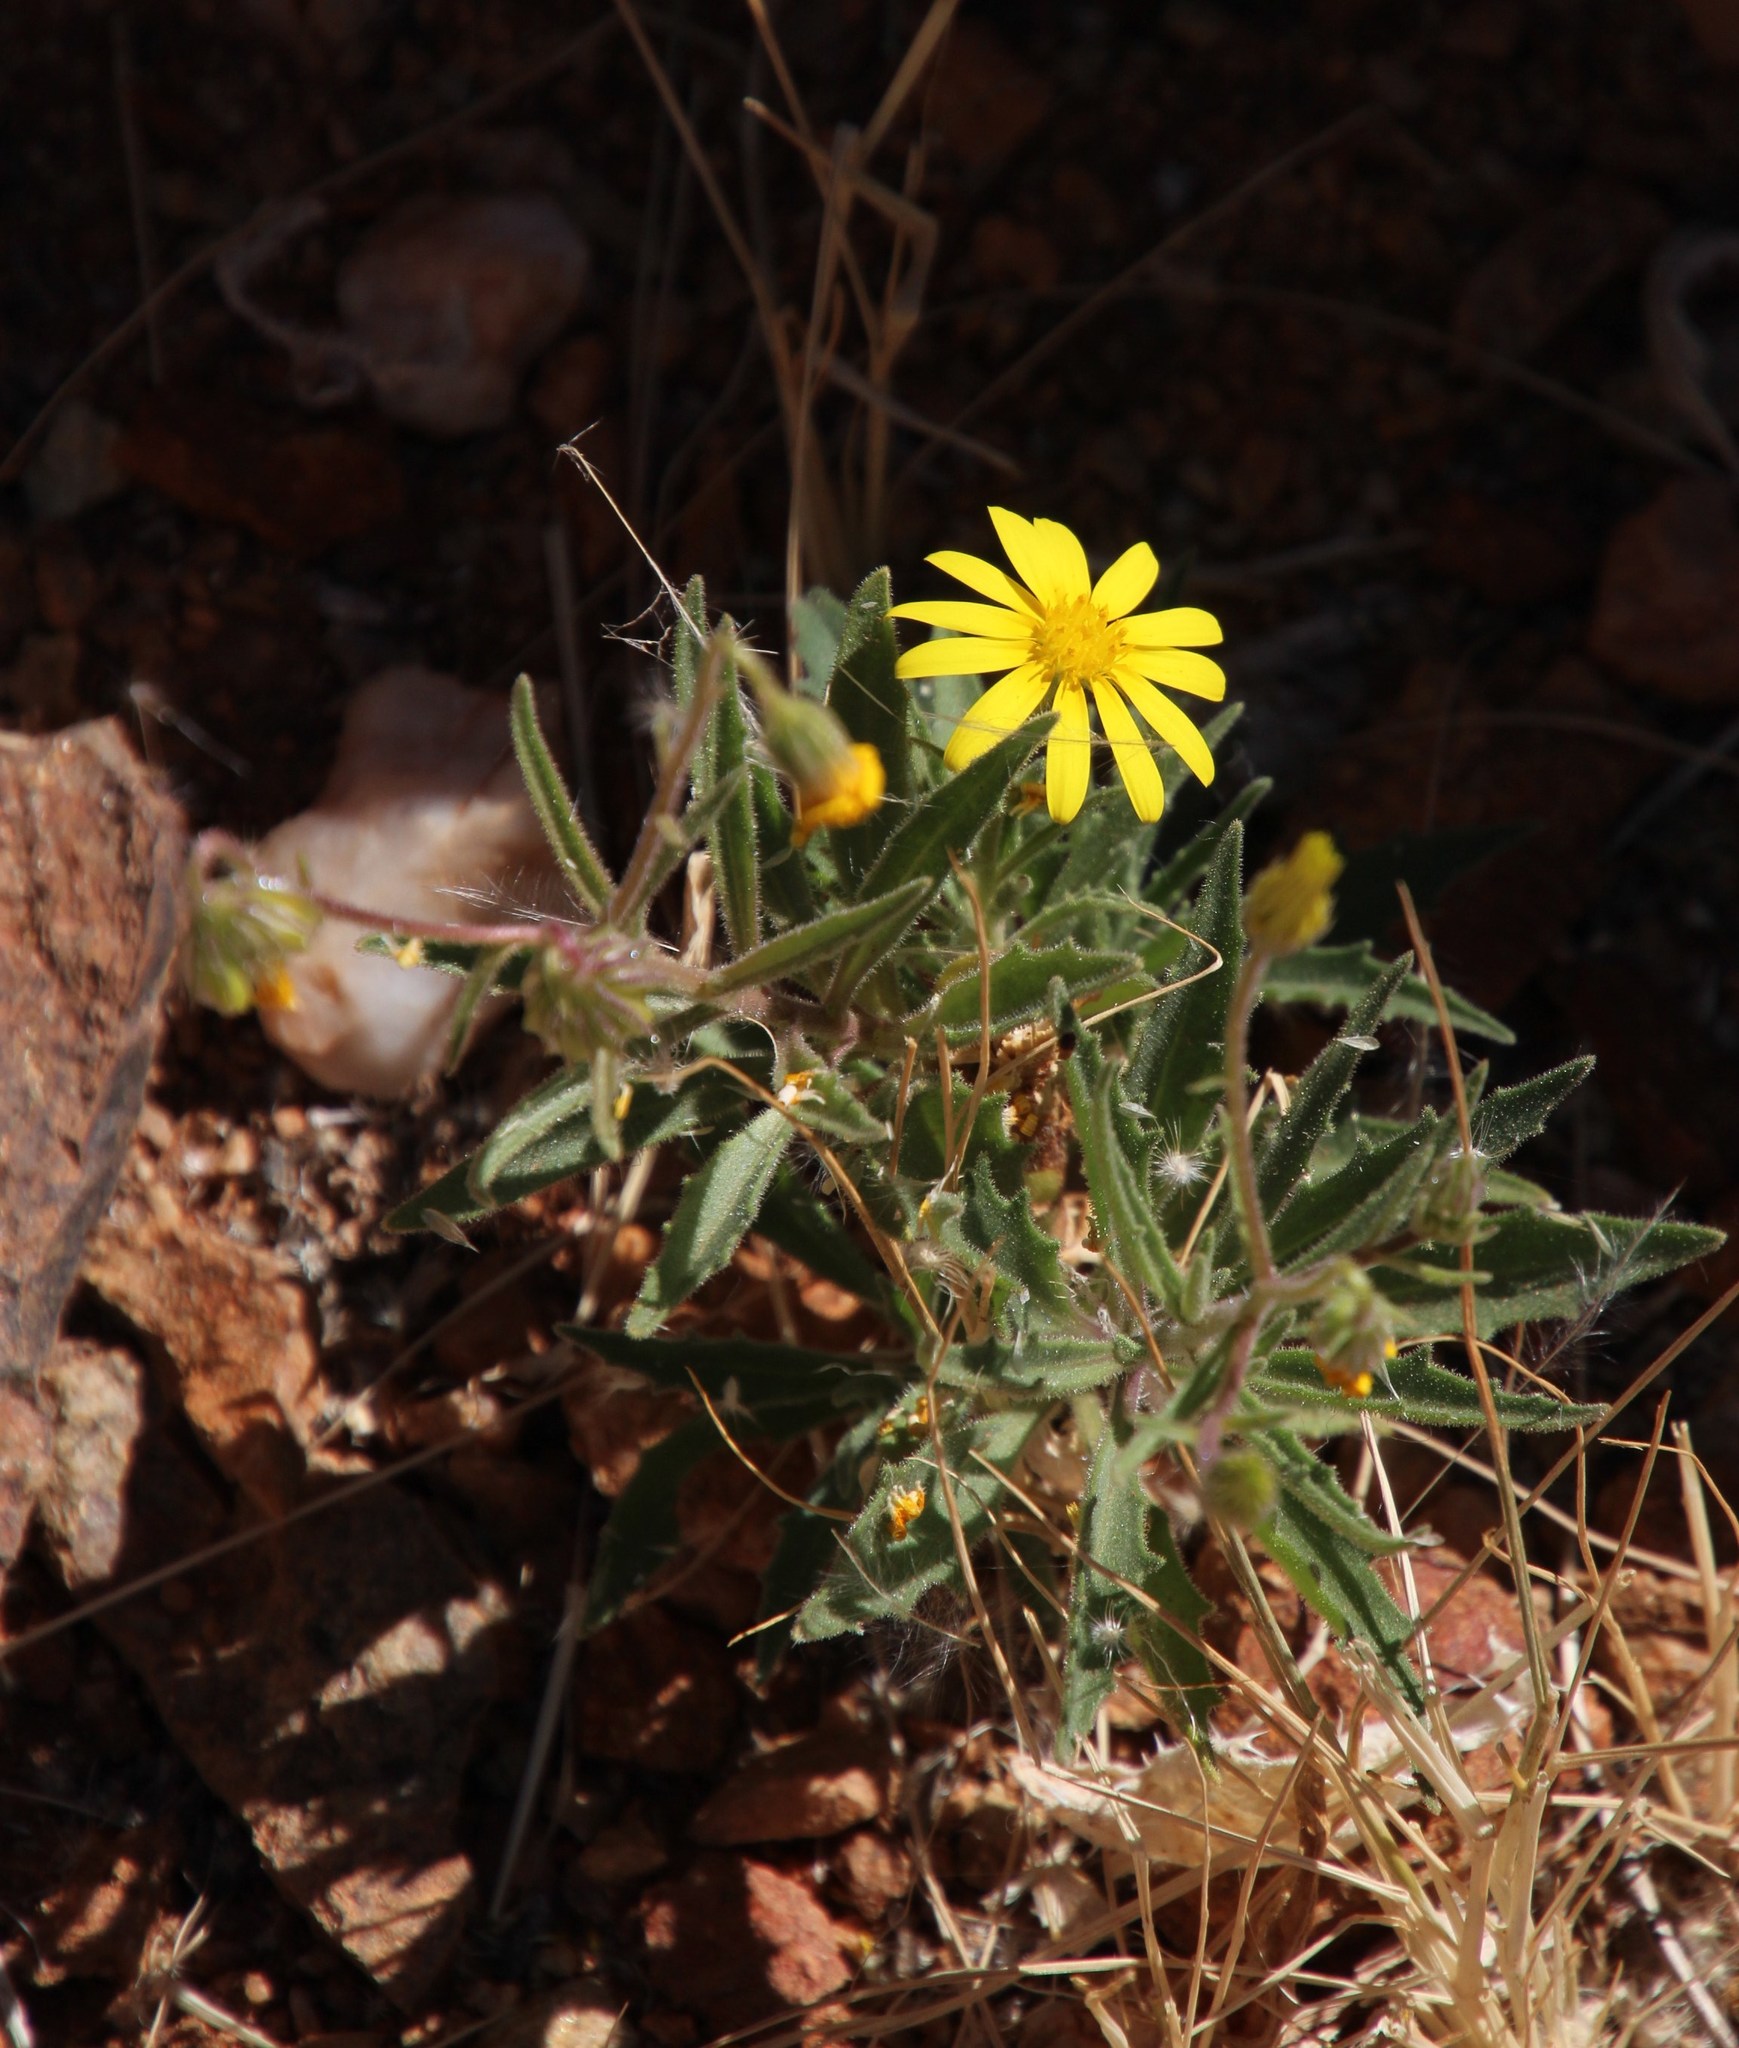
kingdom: Plantae
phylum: Tracheophyta
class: Magnoliopsida
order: Asterales
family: Asteraceae
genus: Osteospermum
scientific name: Osteospermum microcarpum
